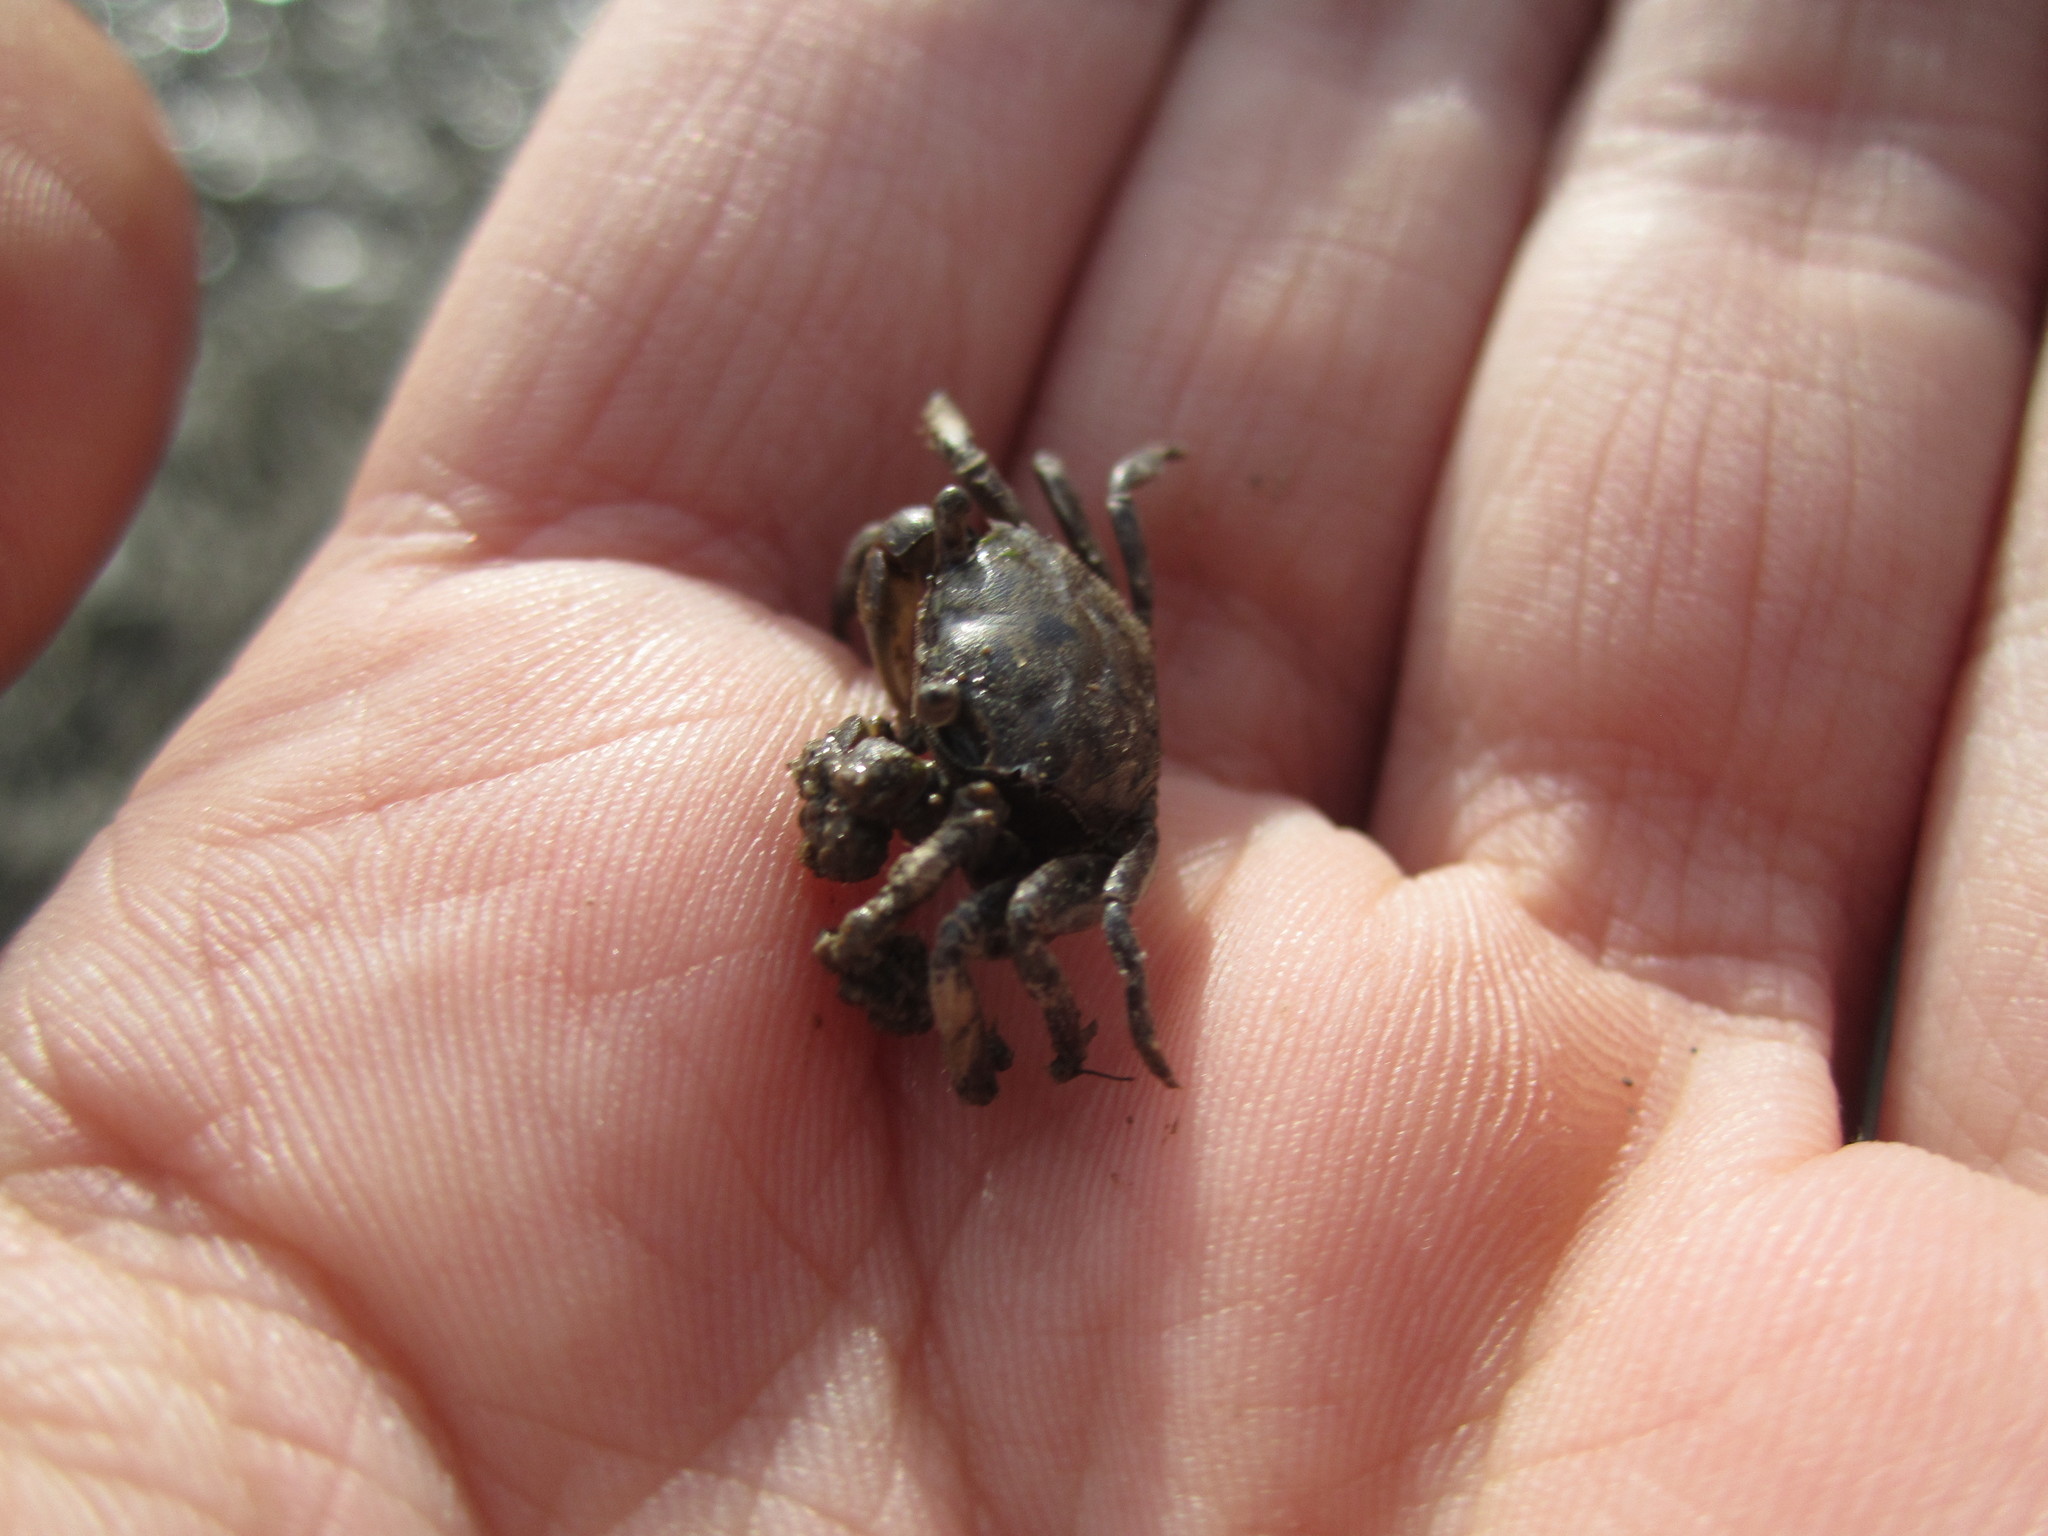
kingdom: Animalia
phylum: Arthropoda
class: Malacostraca
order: Decapoda
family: Varunidae
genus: Austrohelice
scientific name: Austrohelice crassa
